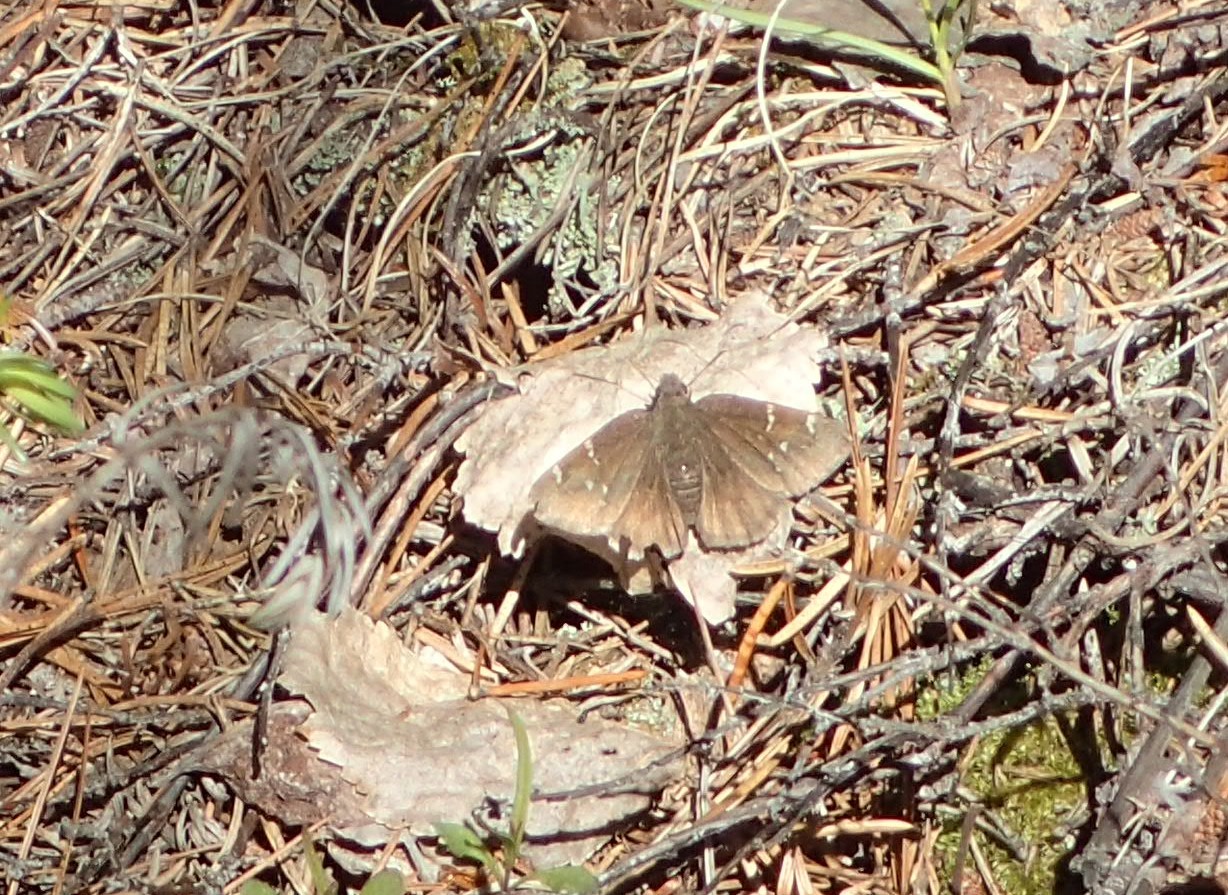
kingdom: Animalia
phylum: Arthropoda
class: Insecta
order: Lepidoptera
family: Hesperiidae
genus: Thorybes
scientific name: Thorybes pylades
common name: Northern cloudywing
